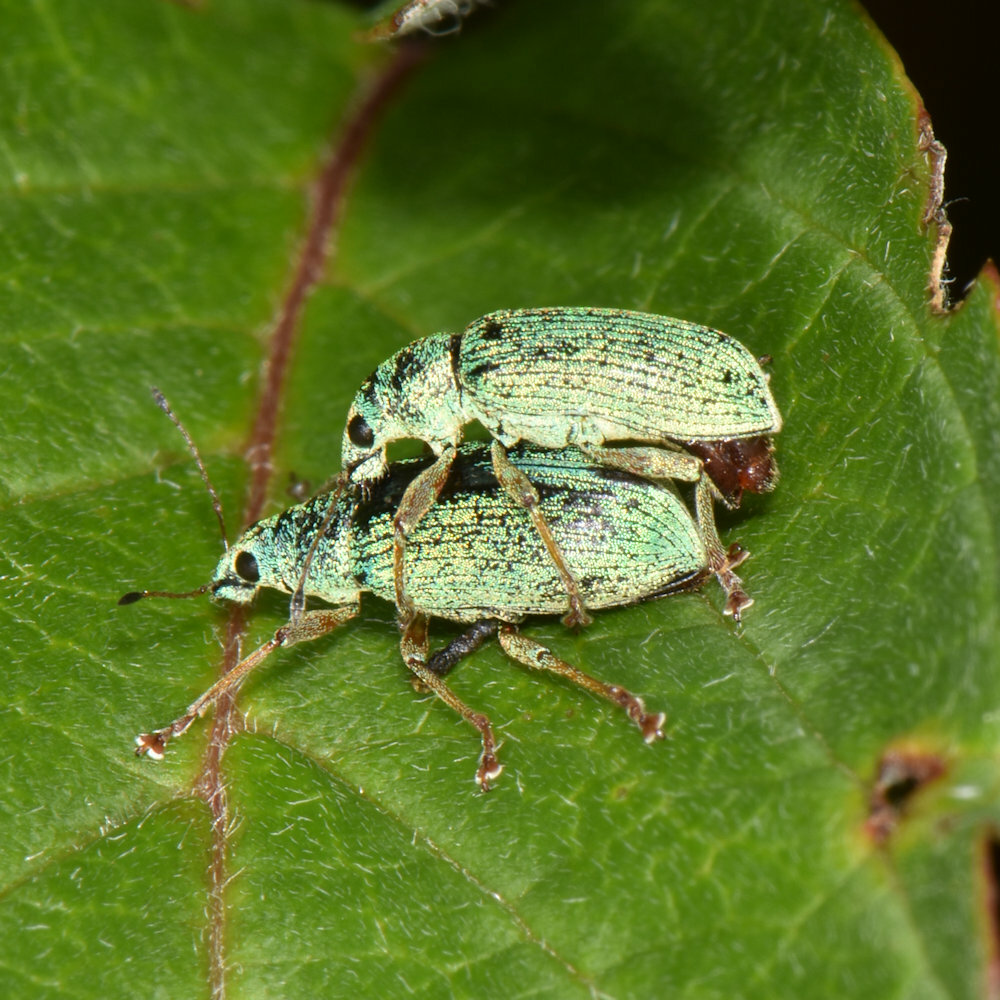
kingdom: Animalia
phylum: Arthropoda
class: Insecta
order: Coleoptera
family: Curculionidae
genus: Polydrusus
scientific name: Polydrusus formosus
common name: Weevil
